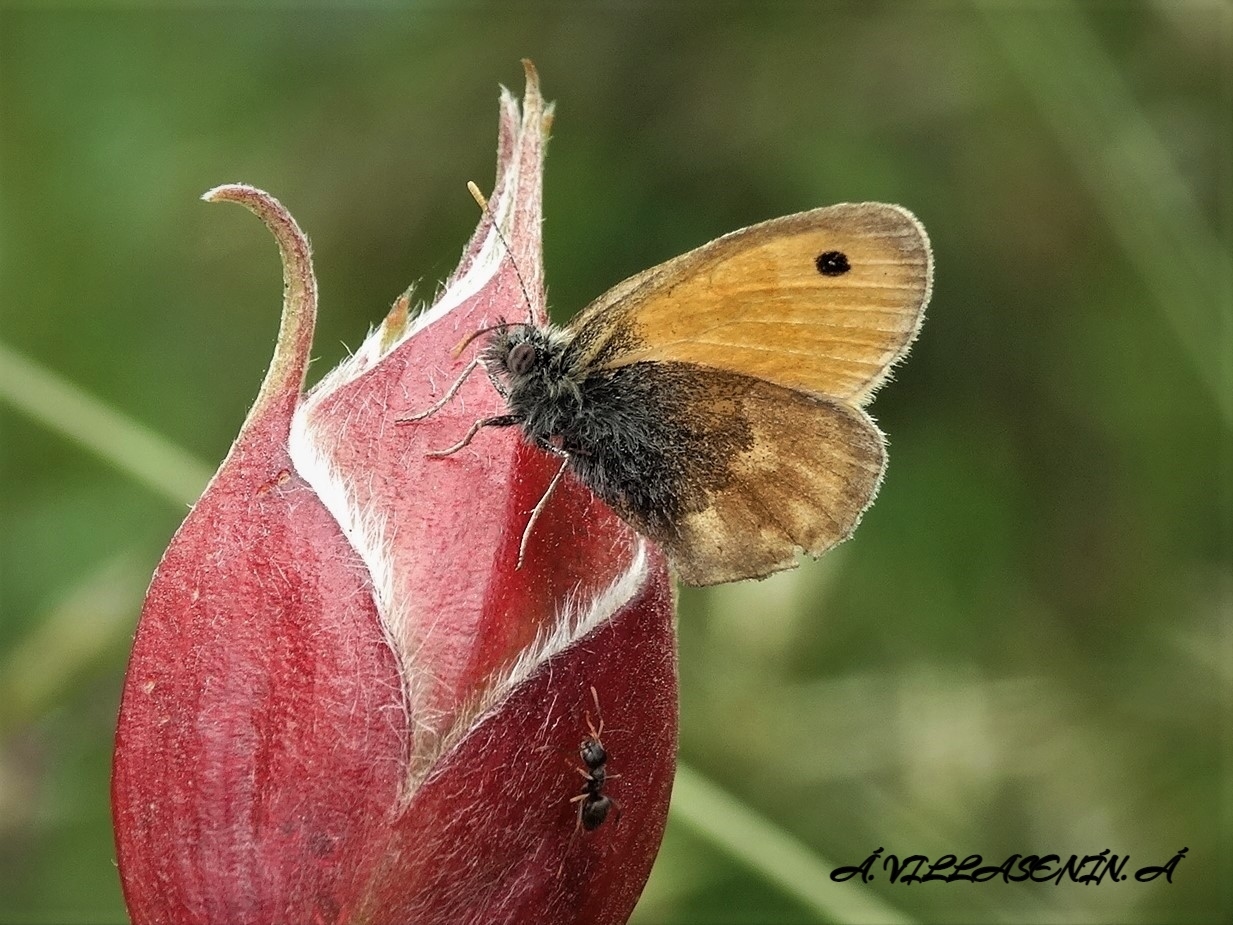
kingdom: Animalia
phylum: Arthropoda
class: Insecta
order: Lepidoptera
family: Nymphalidae
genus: Coenonympha
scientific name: Coenonympha pamphilus
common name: Small heath
